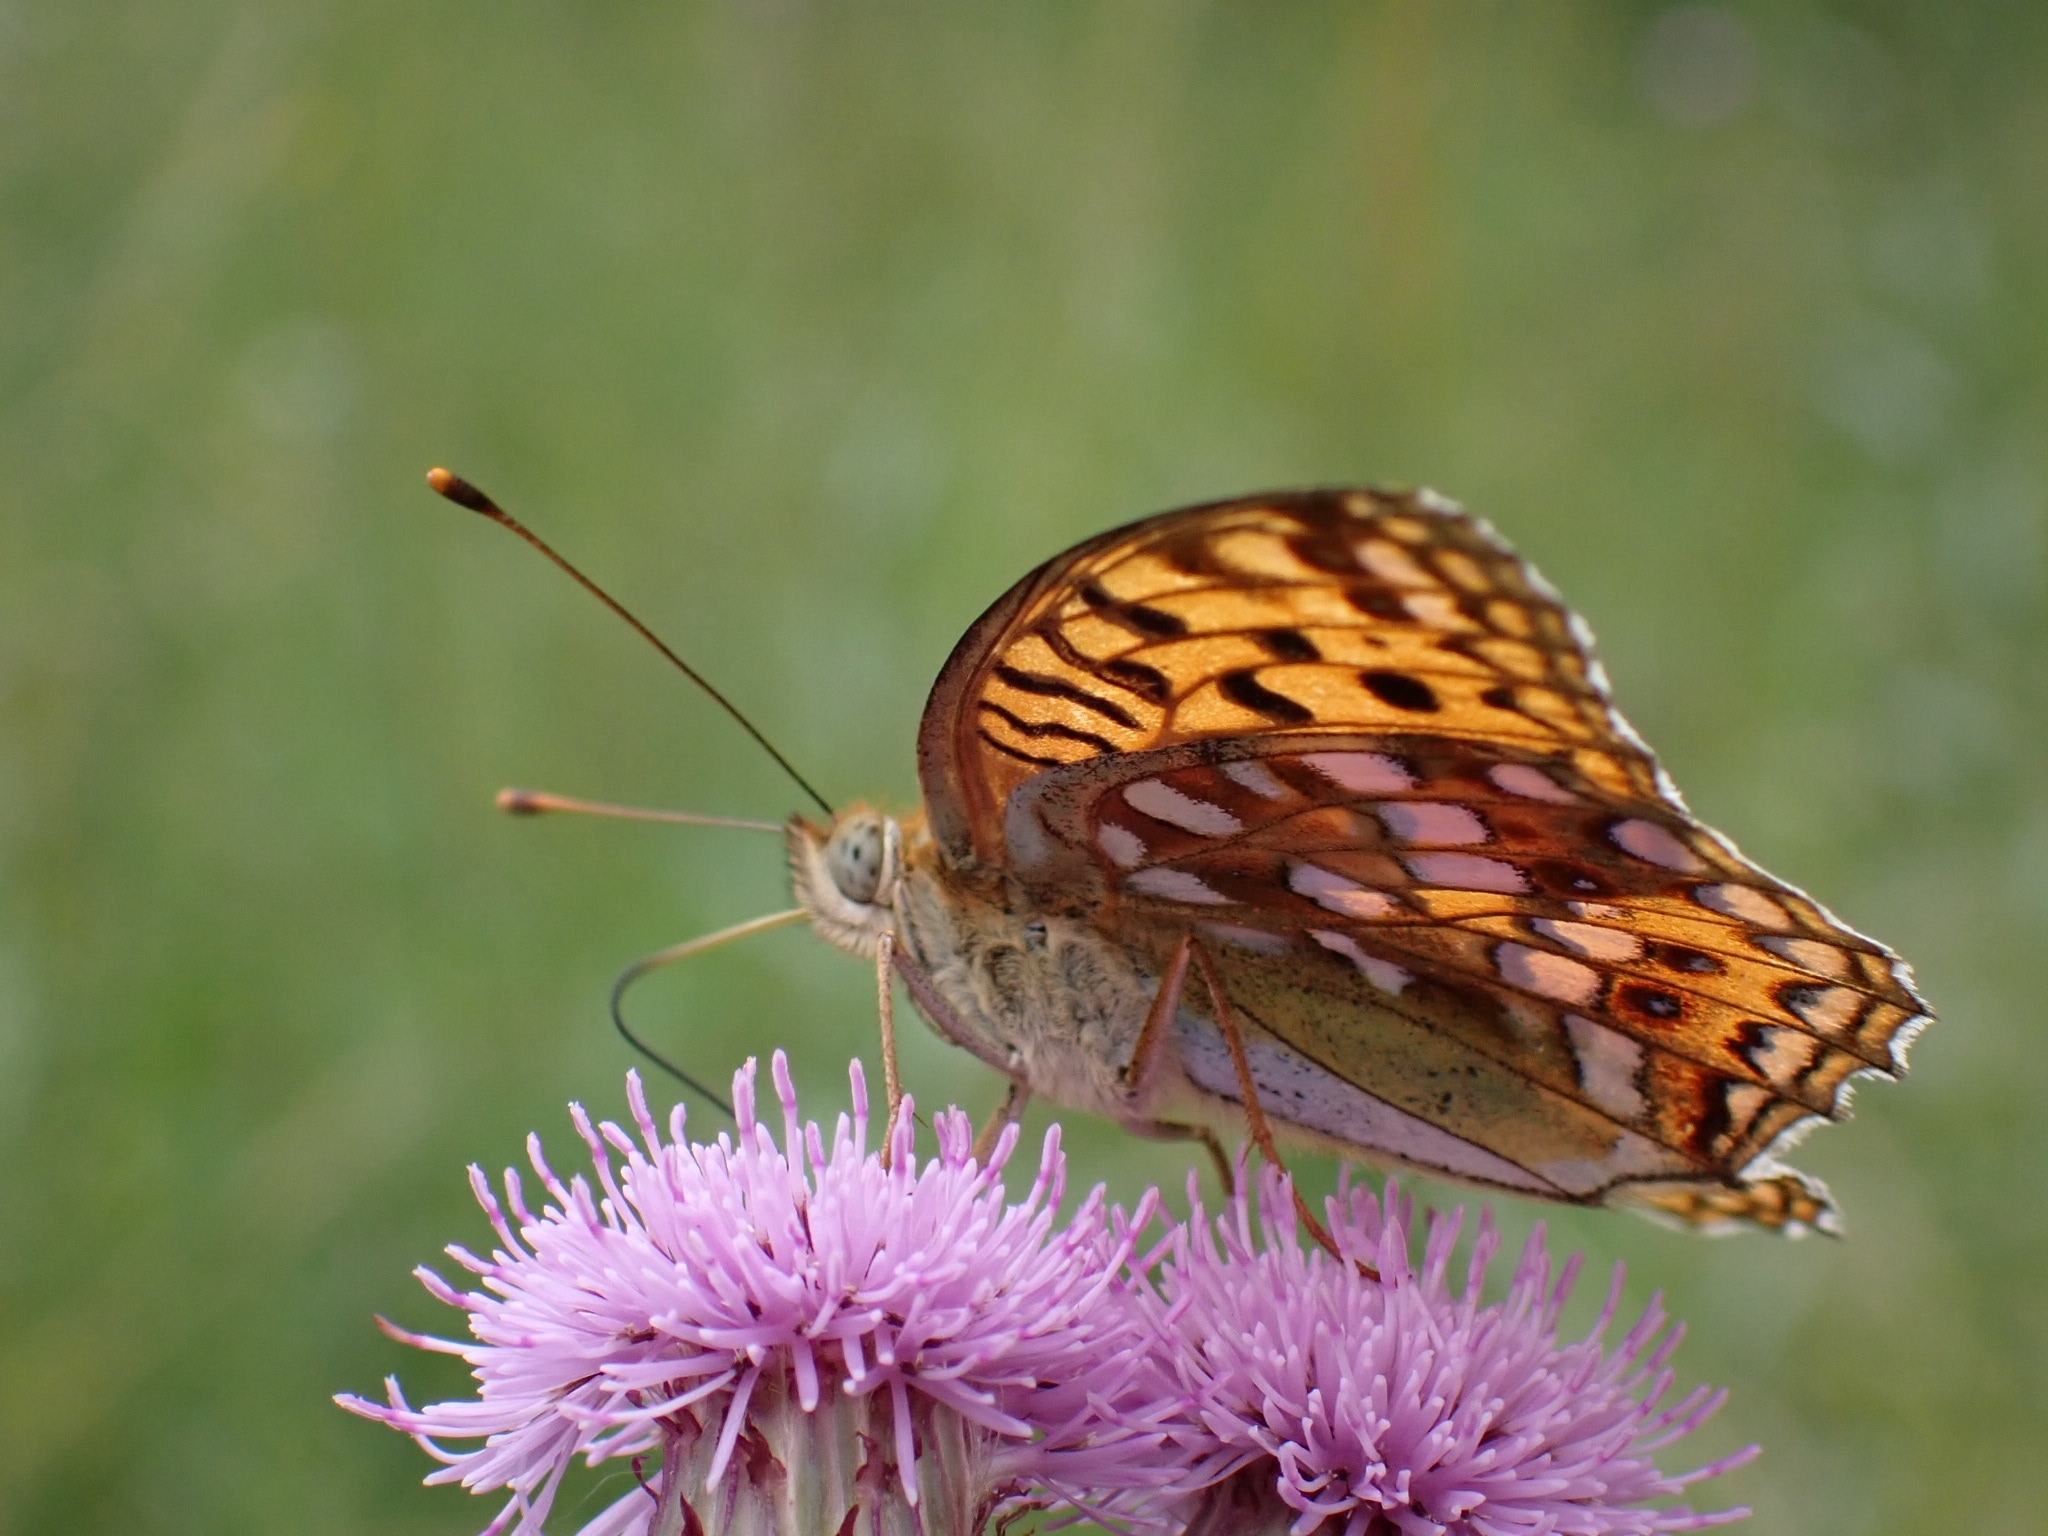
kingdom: Animalia
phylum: Arthropoda
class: Insecta
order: Lepidoptera
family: Nymphalidae
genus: Fabriciana
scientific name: Fabriciana adippe
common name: High brown fritillary
